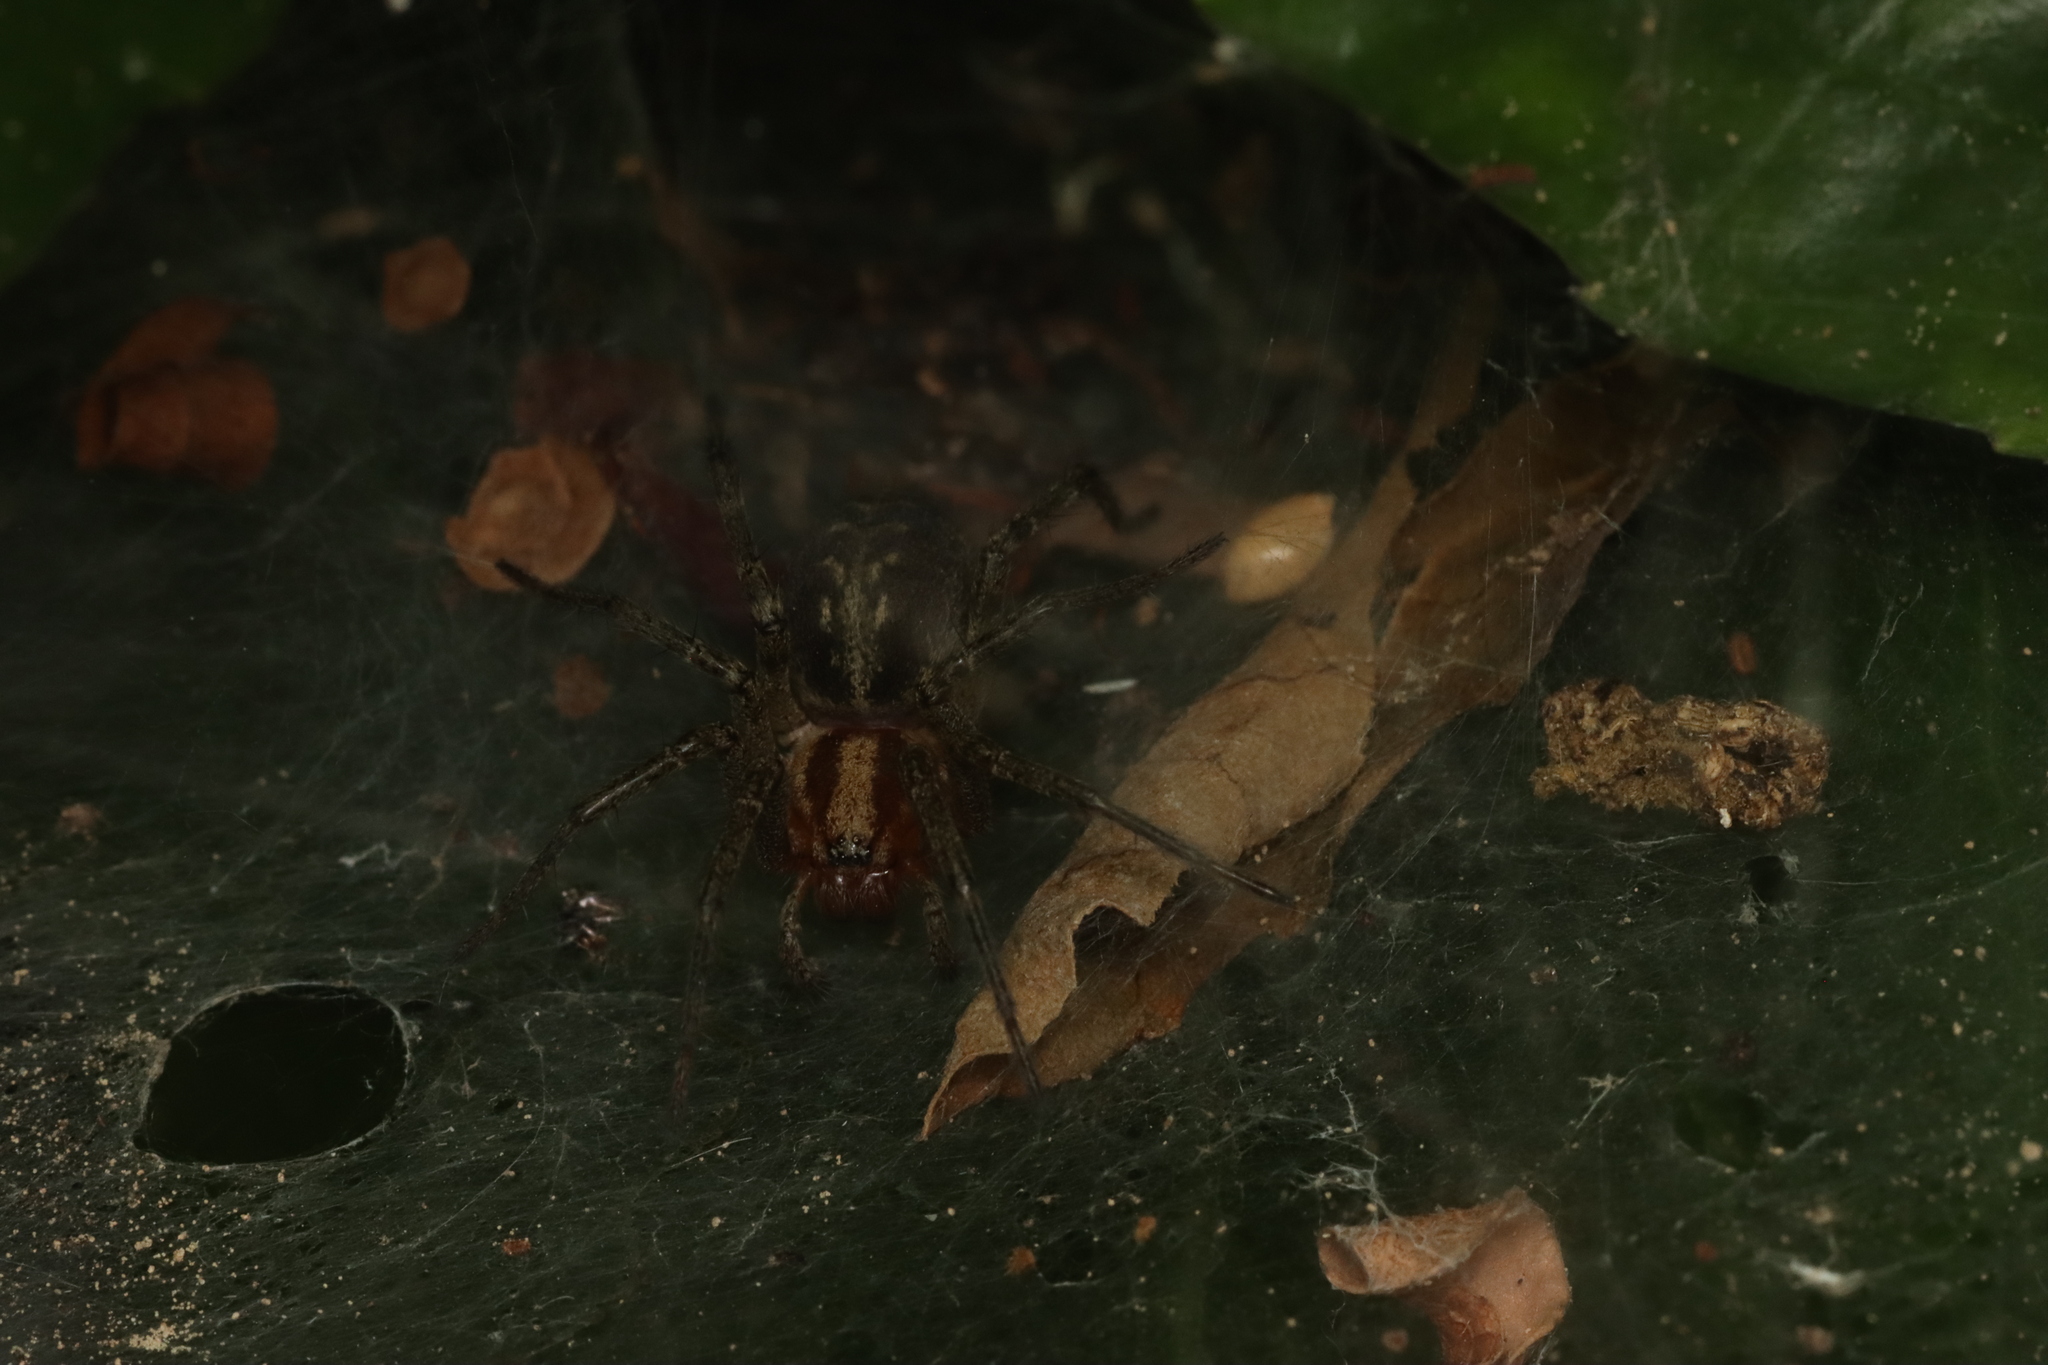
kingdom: Animalia
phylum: Arthropoda
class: Arachnida
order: Araneae
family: Agelenidae
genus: Agelena
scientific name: Agelena labyrinthica
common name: Labyrinth spider
